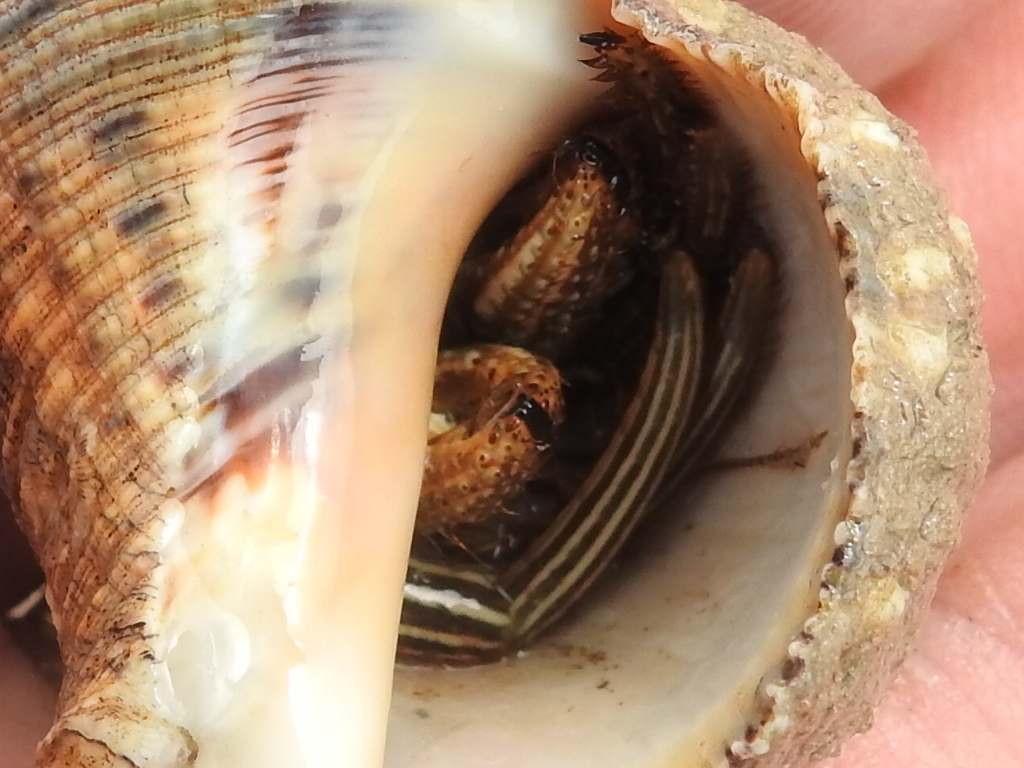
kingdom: Animalia
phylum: Arthropoda
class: Malacostraca
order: Decapoda
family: Diogenidae
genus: Clibanarius
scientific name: Clibanarius vittatus
